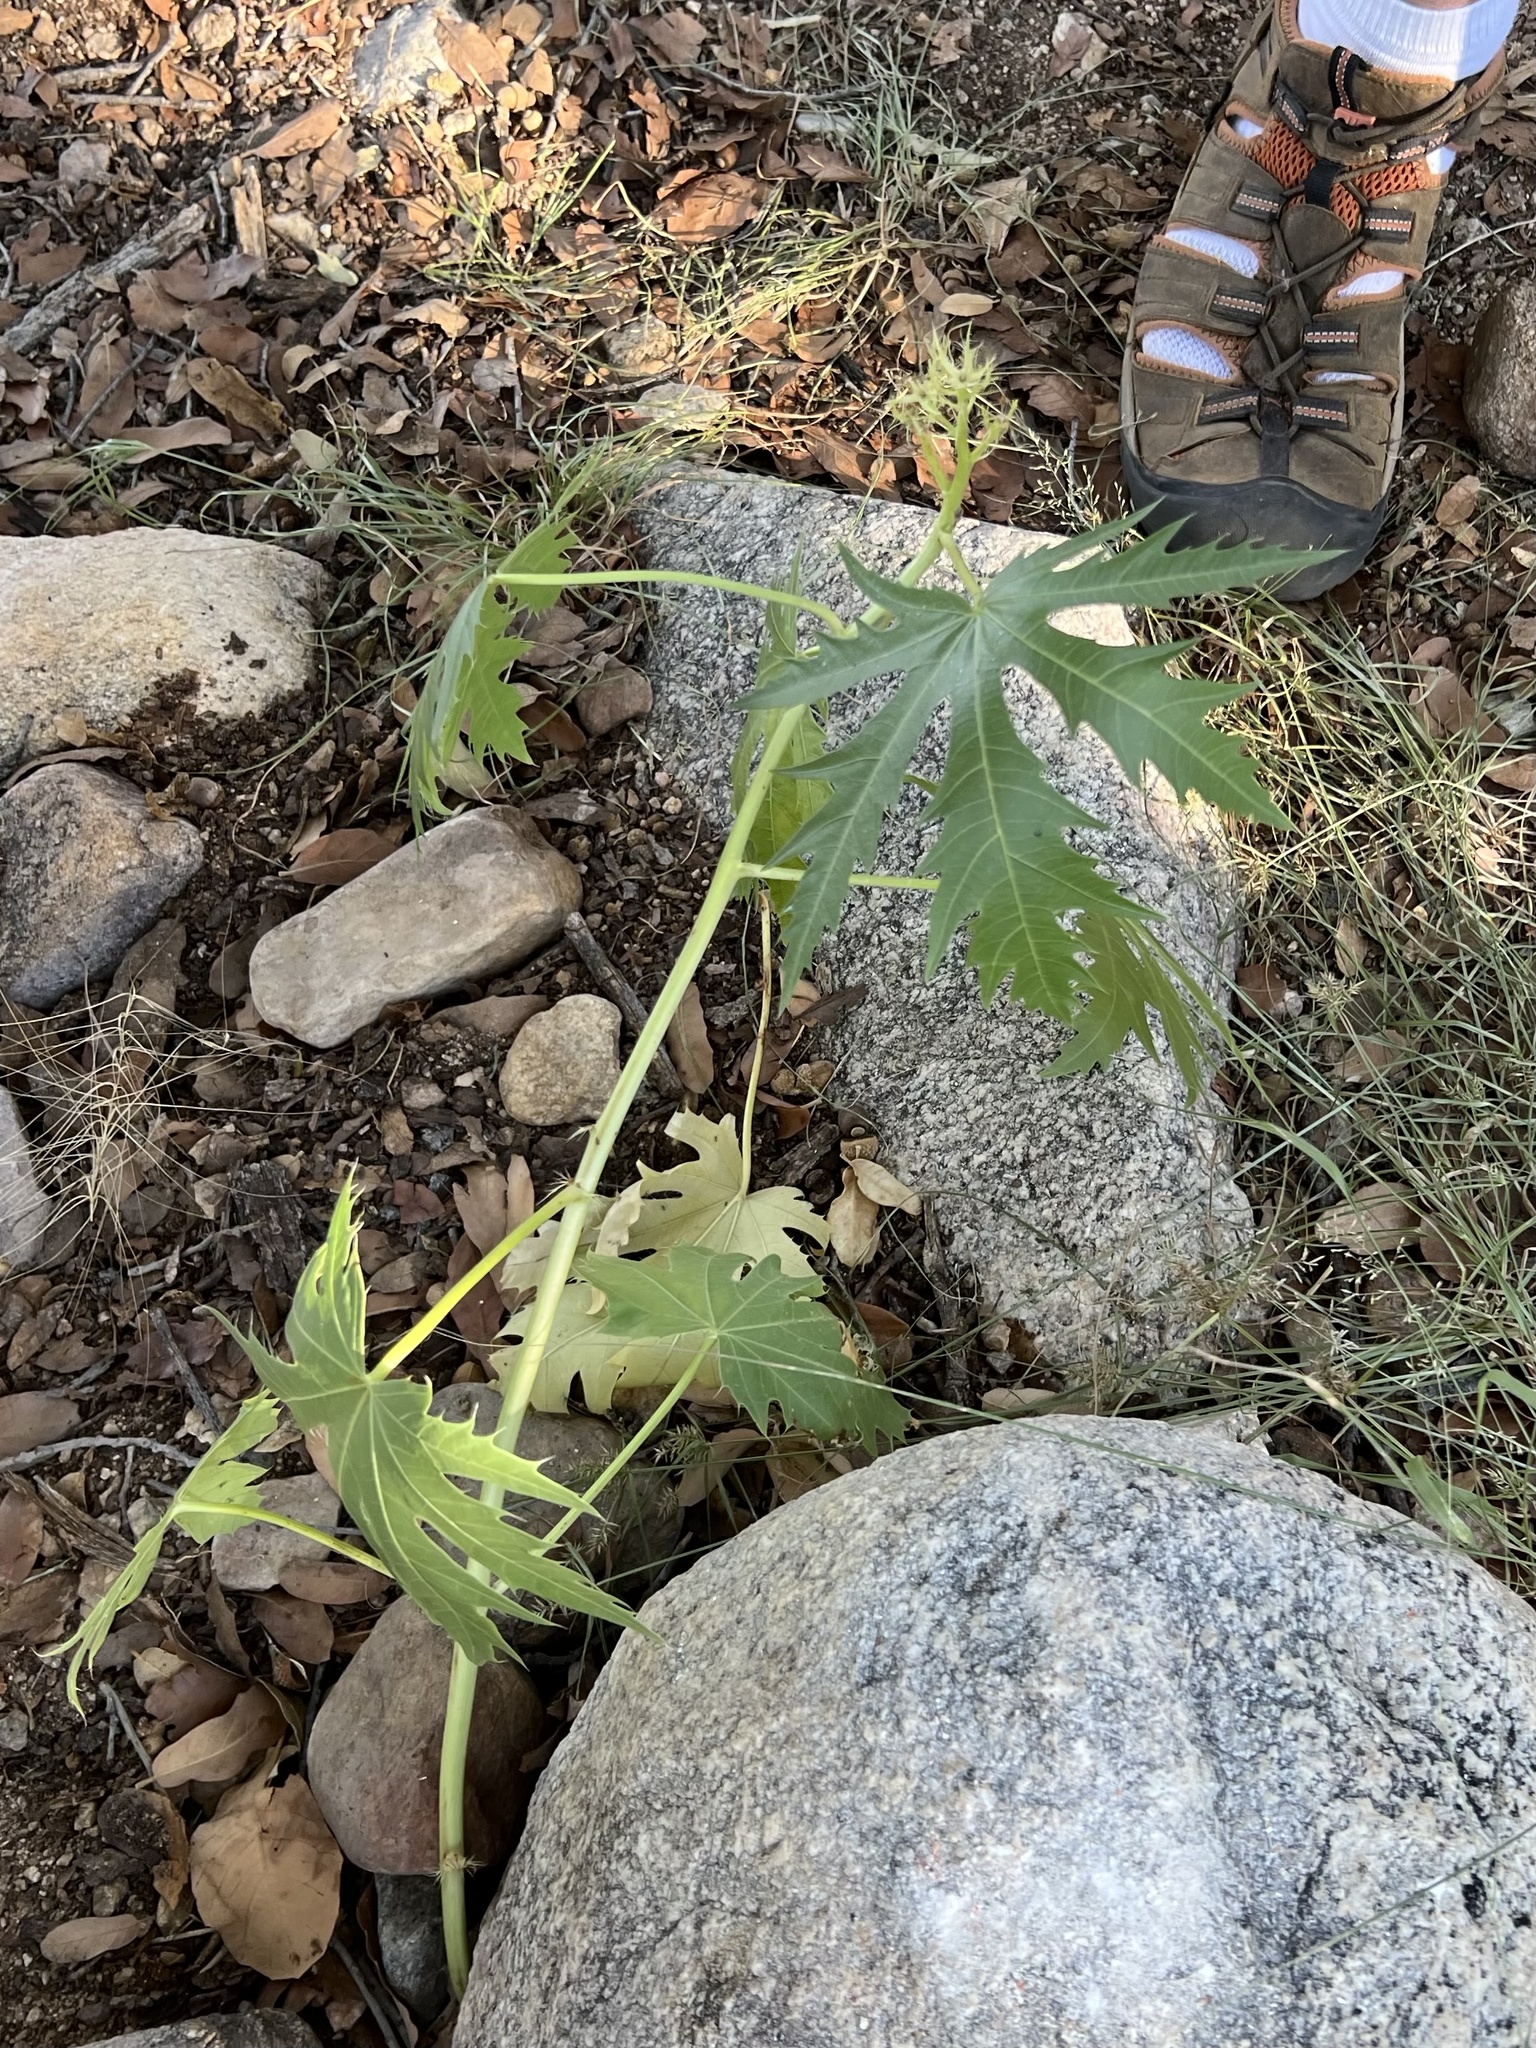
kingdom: Plantae
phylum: Tracheophyta
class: Magnoliopsida
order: Malpighiales
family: Euphorbiaceae
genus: Jatropha
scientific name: Jatropha macrorhiza
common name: Ragged nettlespurge
